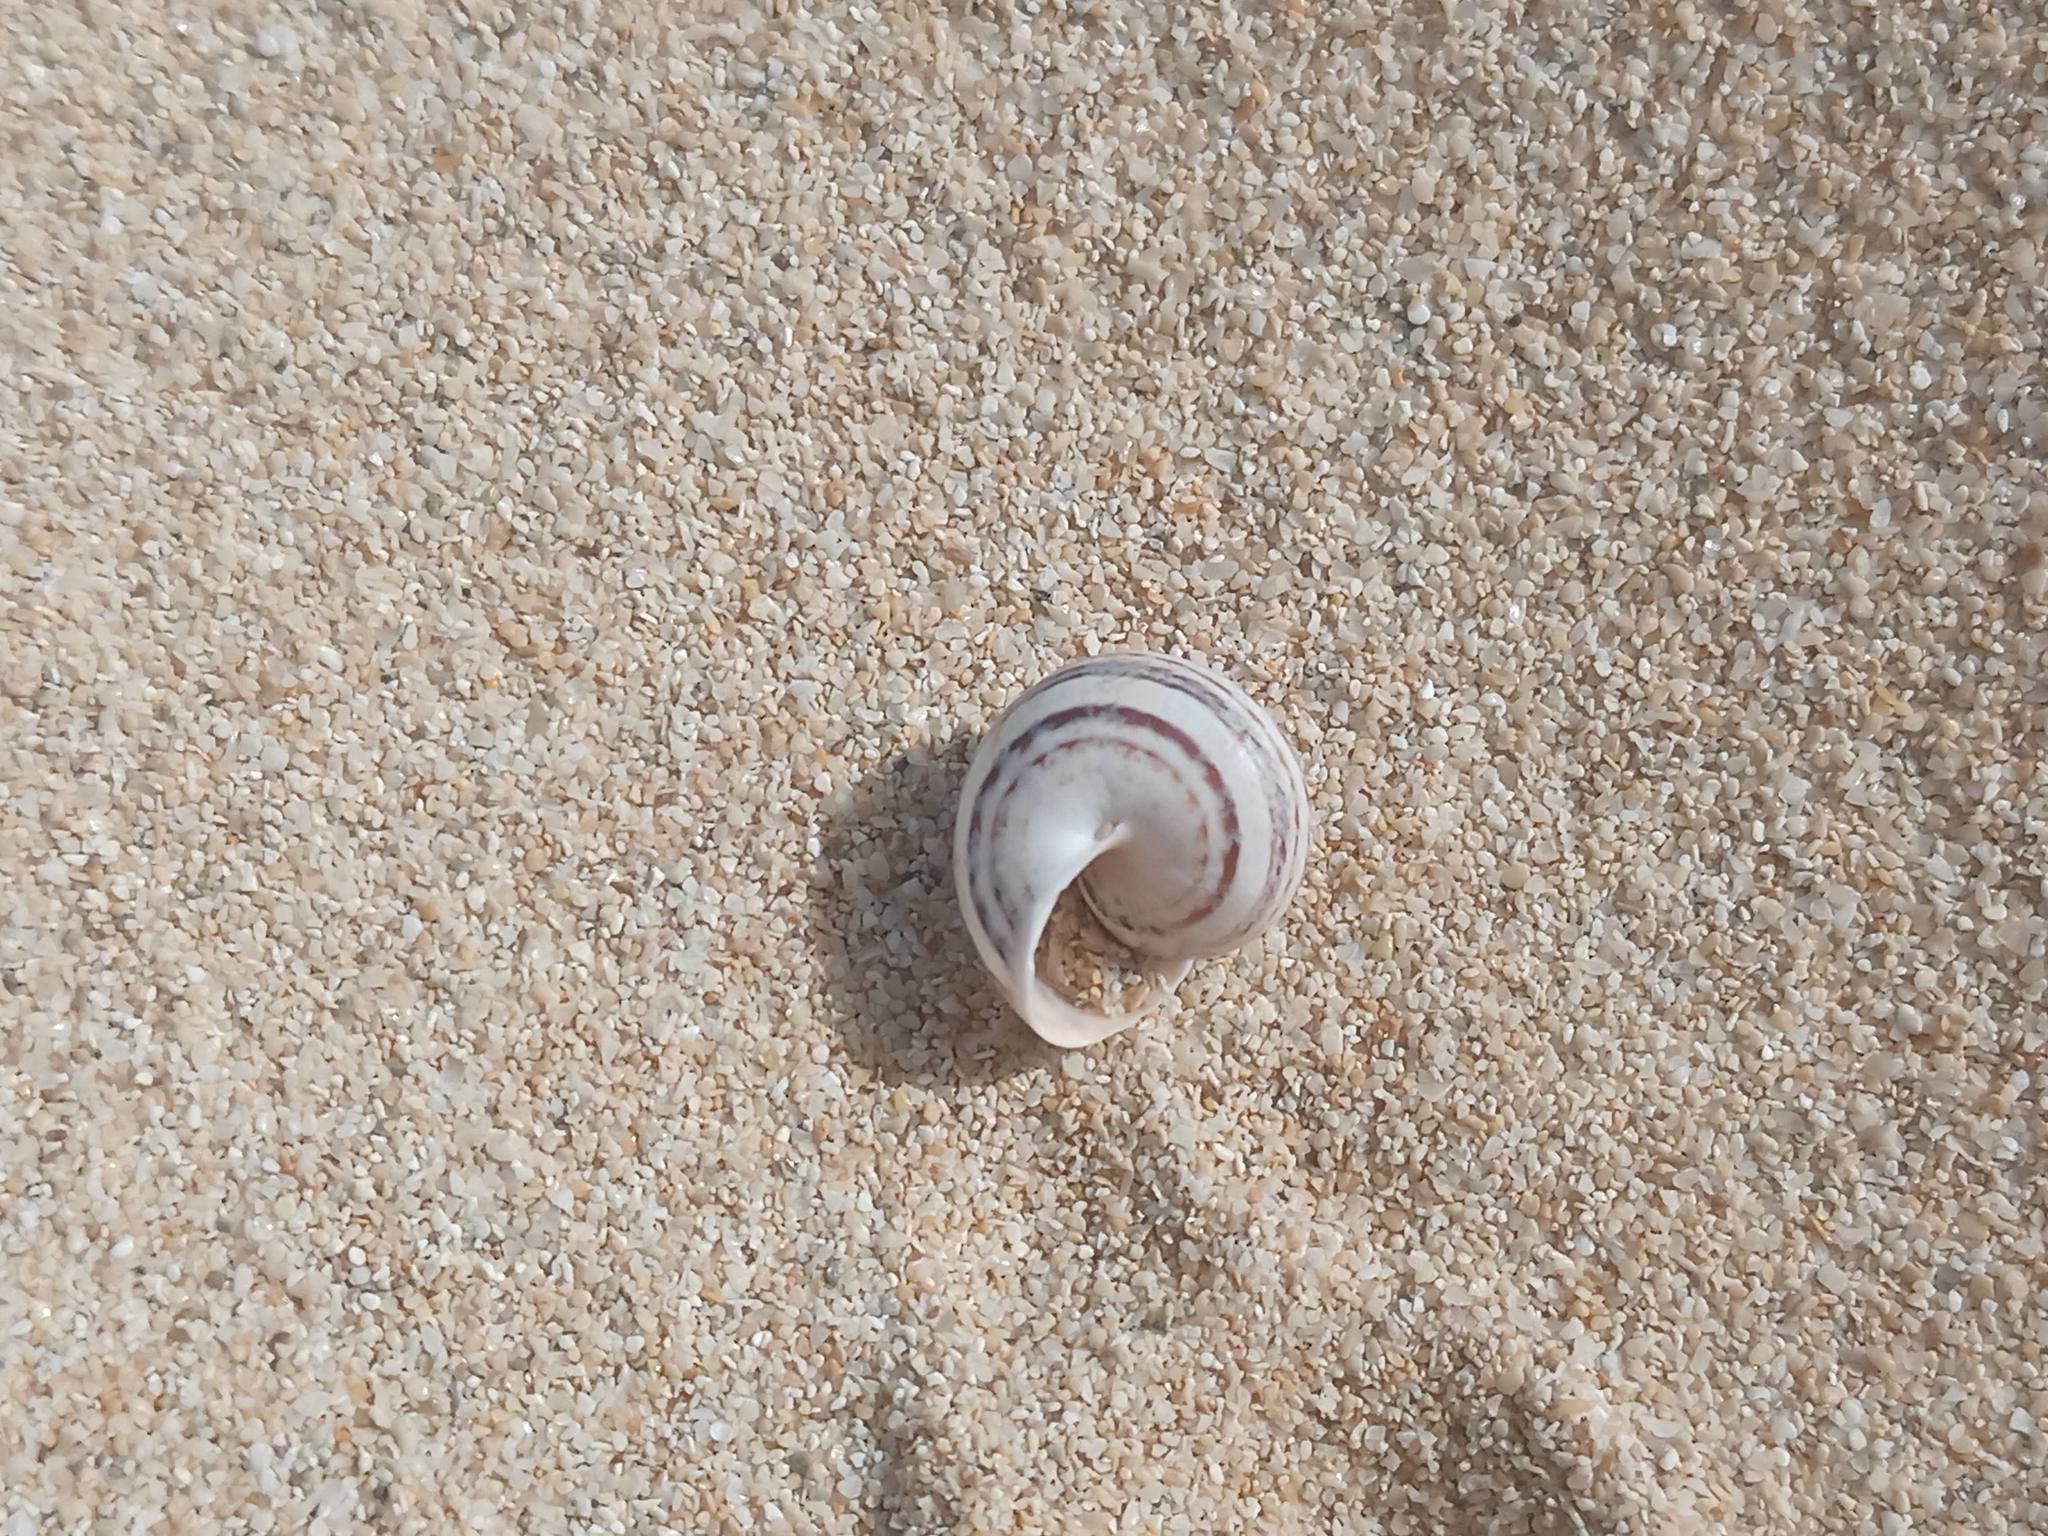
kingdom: Animalia
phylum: Mollusca
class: Gastropoda
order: Stylommatophora
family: Helicidae
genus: Theba
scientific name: Theba geminata
